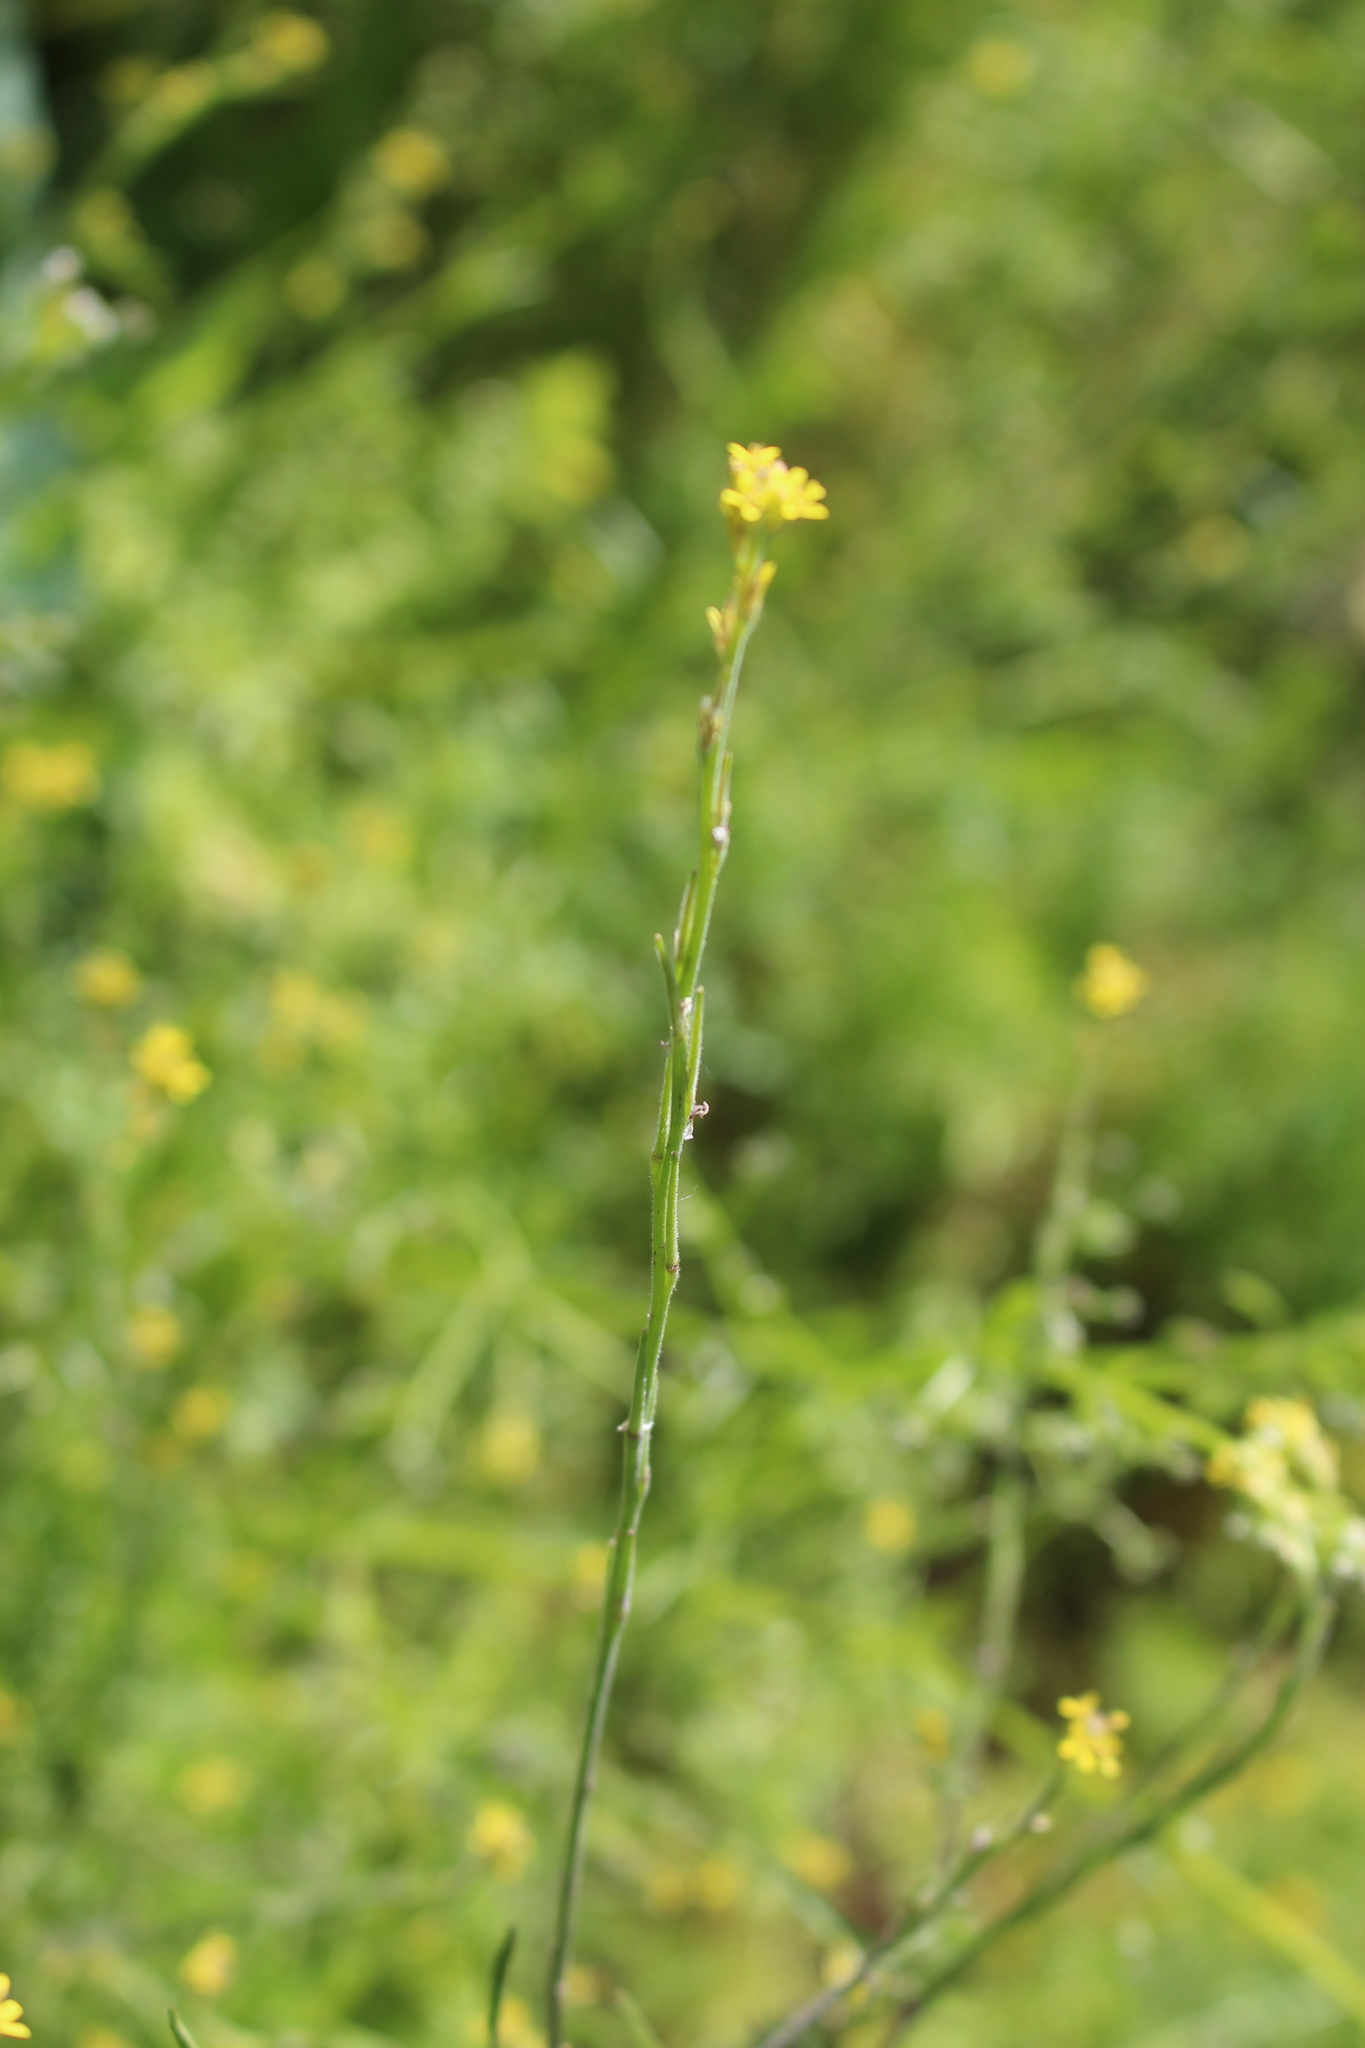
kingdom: Plantae
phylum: Tracheophyta
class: Magnoliopsida
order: Brassicales
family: Brassicaceae
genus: Sisymbrium
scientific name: Sisymbrium officinale
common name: Hedge mustard
